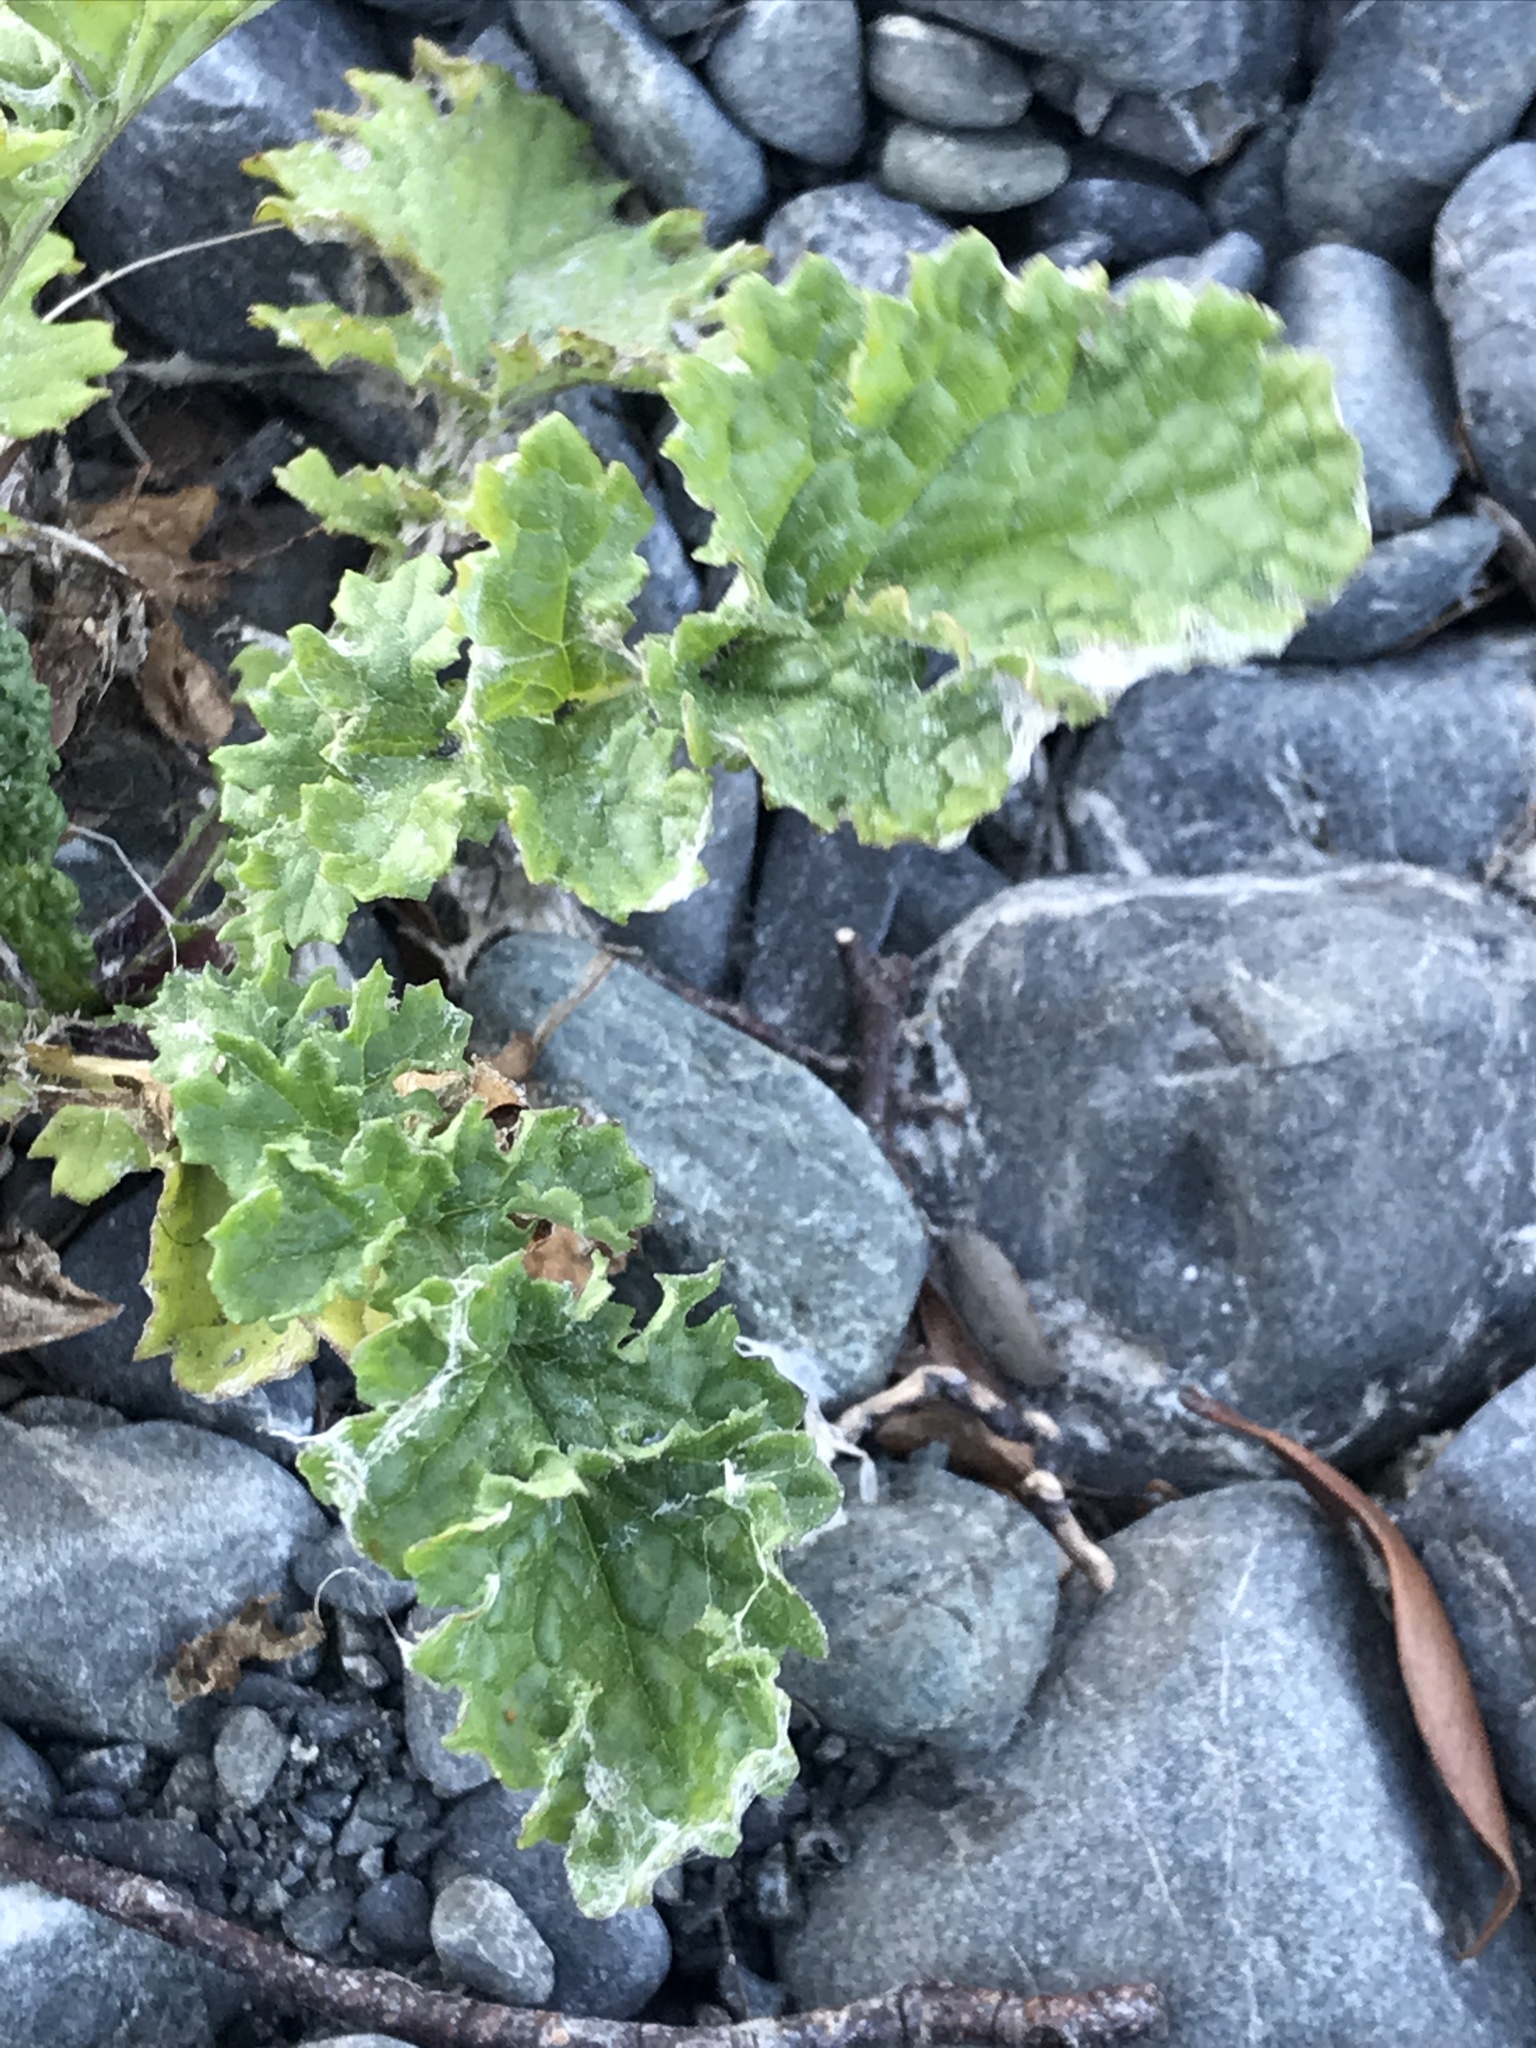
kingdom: Plantae
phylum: Tracheophyta
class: Magnoliopsida
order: Asterales
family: Asteraceae
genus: Jacobaea
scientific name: Jacobaea vulgaris
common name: Stinking willie
